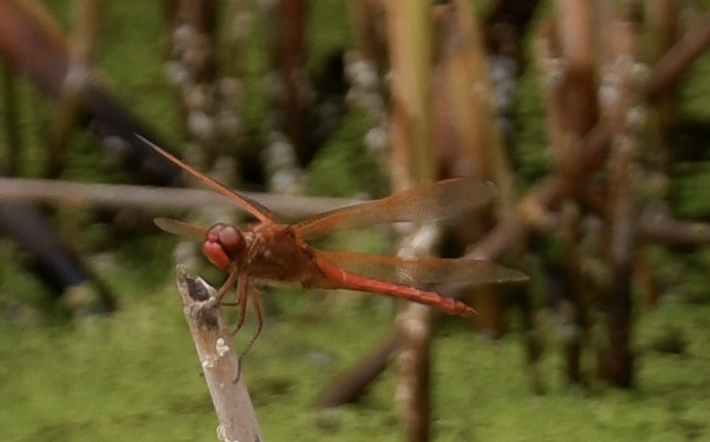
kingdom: Animalia
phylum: Arthropoda
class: Insecta
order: Odonata
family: Libellulidae
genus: Libellula
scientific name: Libellula needhami
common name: Needham's skimmer
